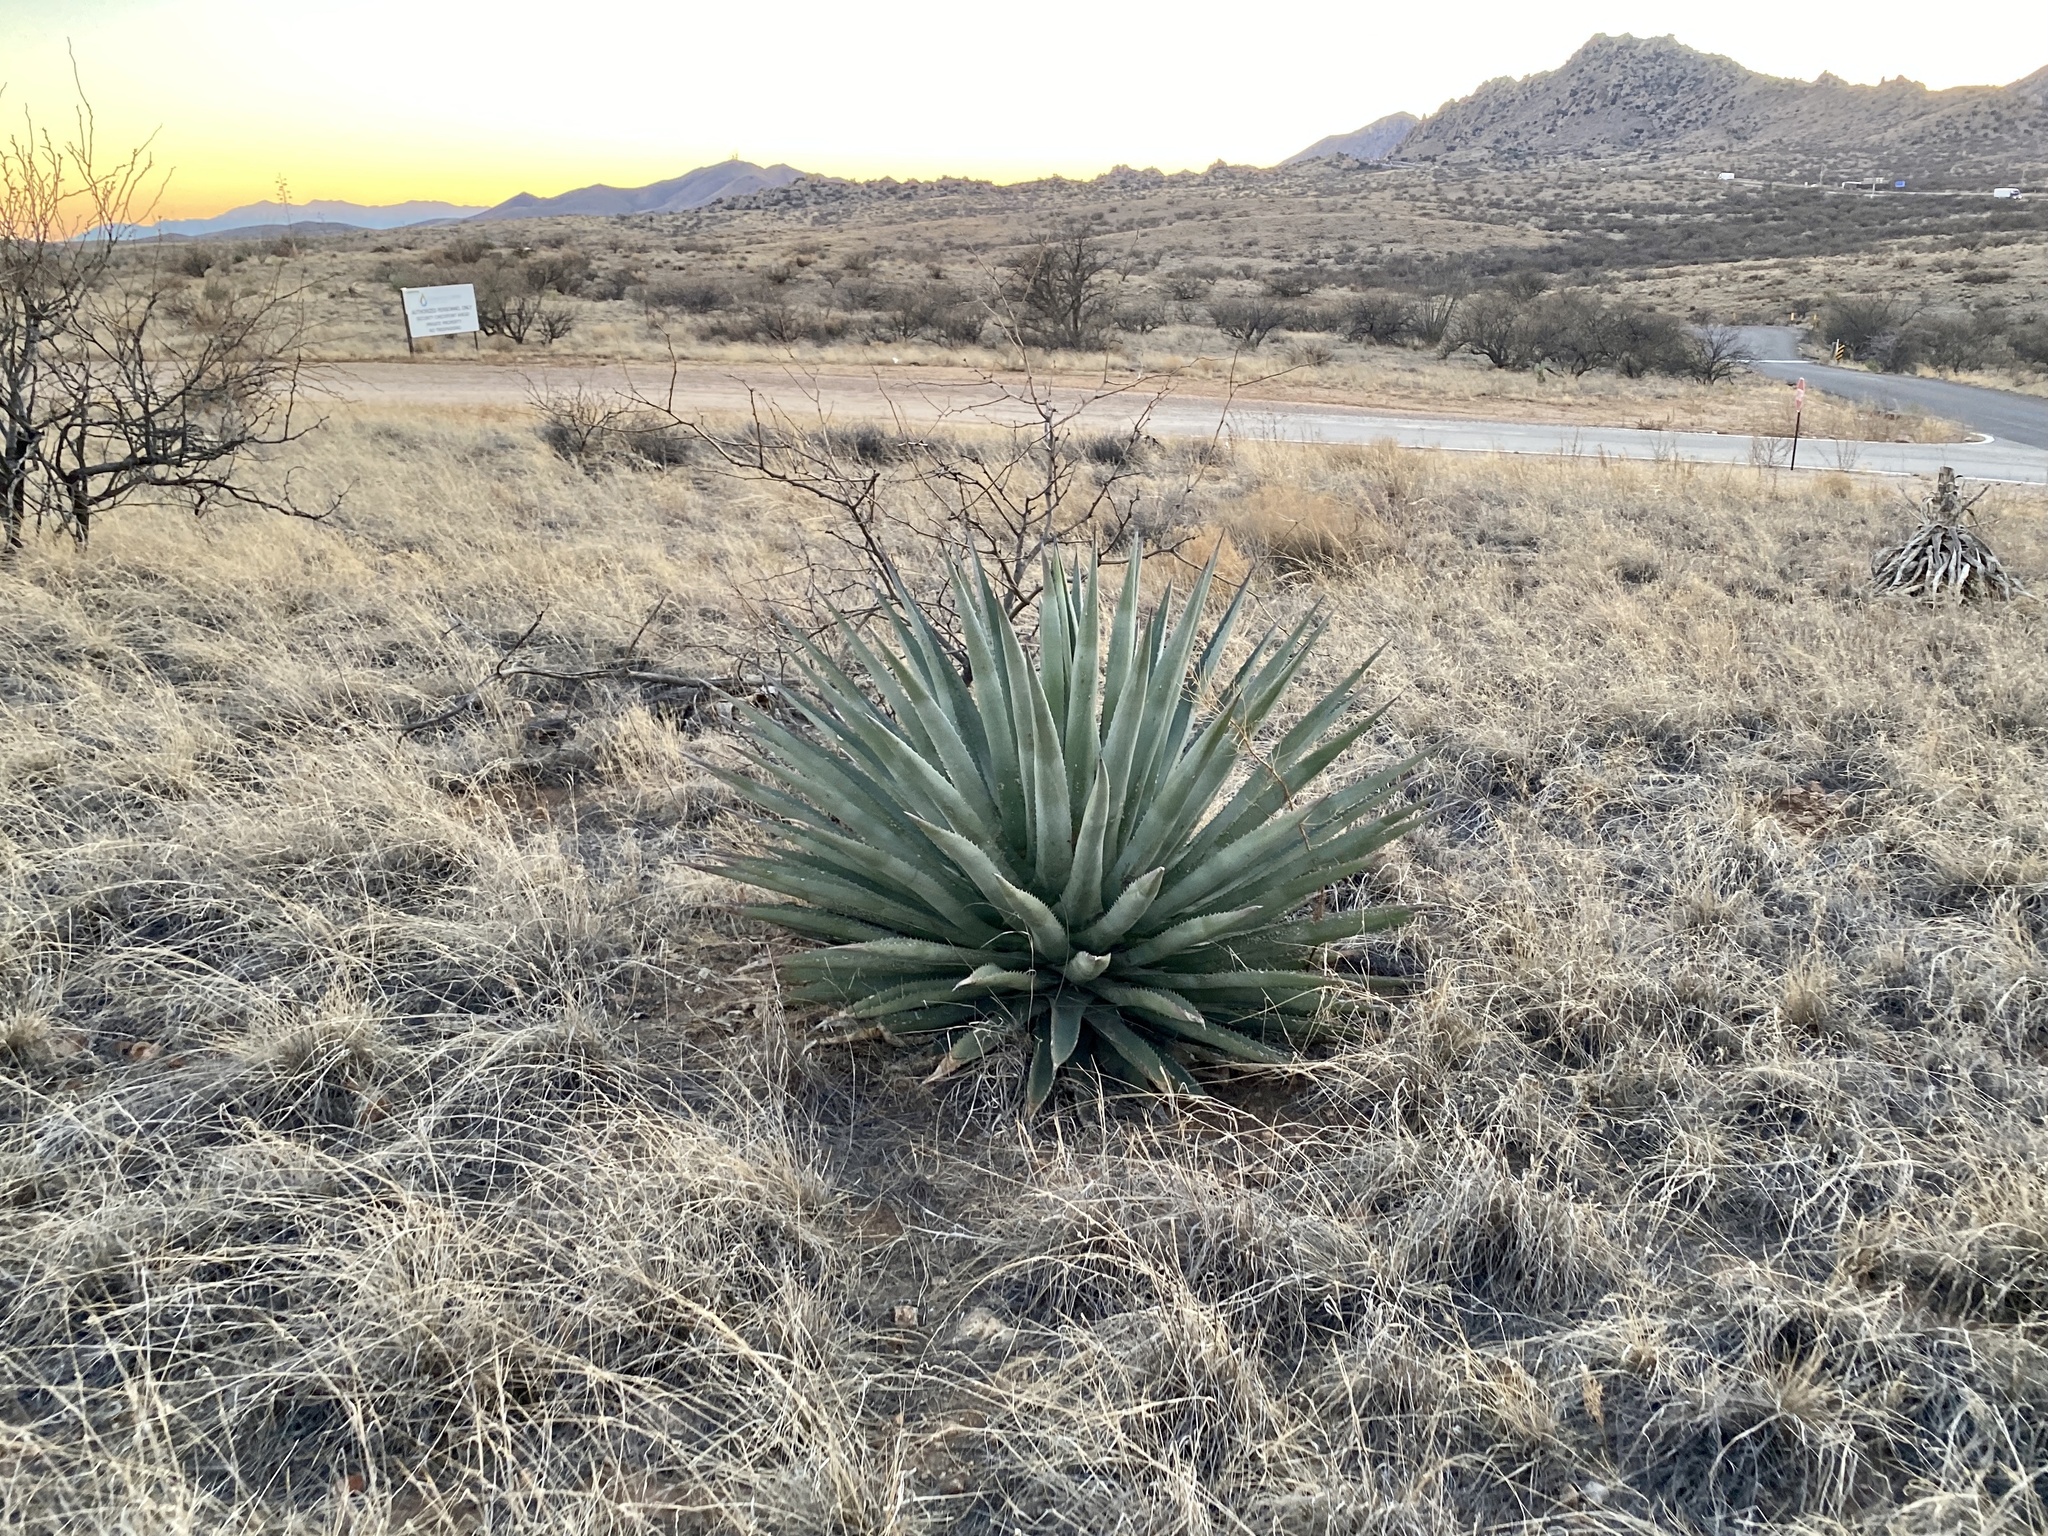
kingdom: Plantae
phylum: Tracheophyta
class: Liliopsida
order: Asparagales
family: Asparagaceae
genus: Agave
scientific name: Agave palmeri
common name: Palmer agave
